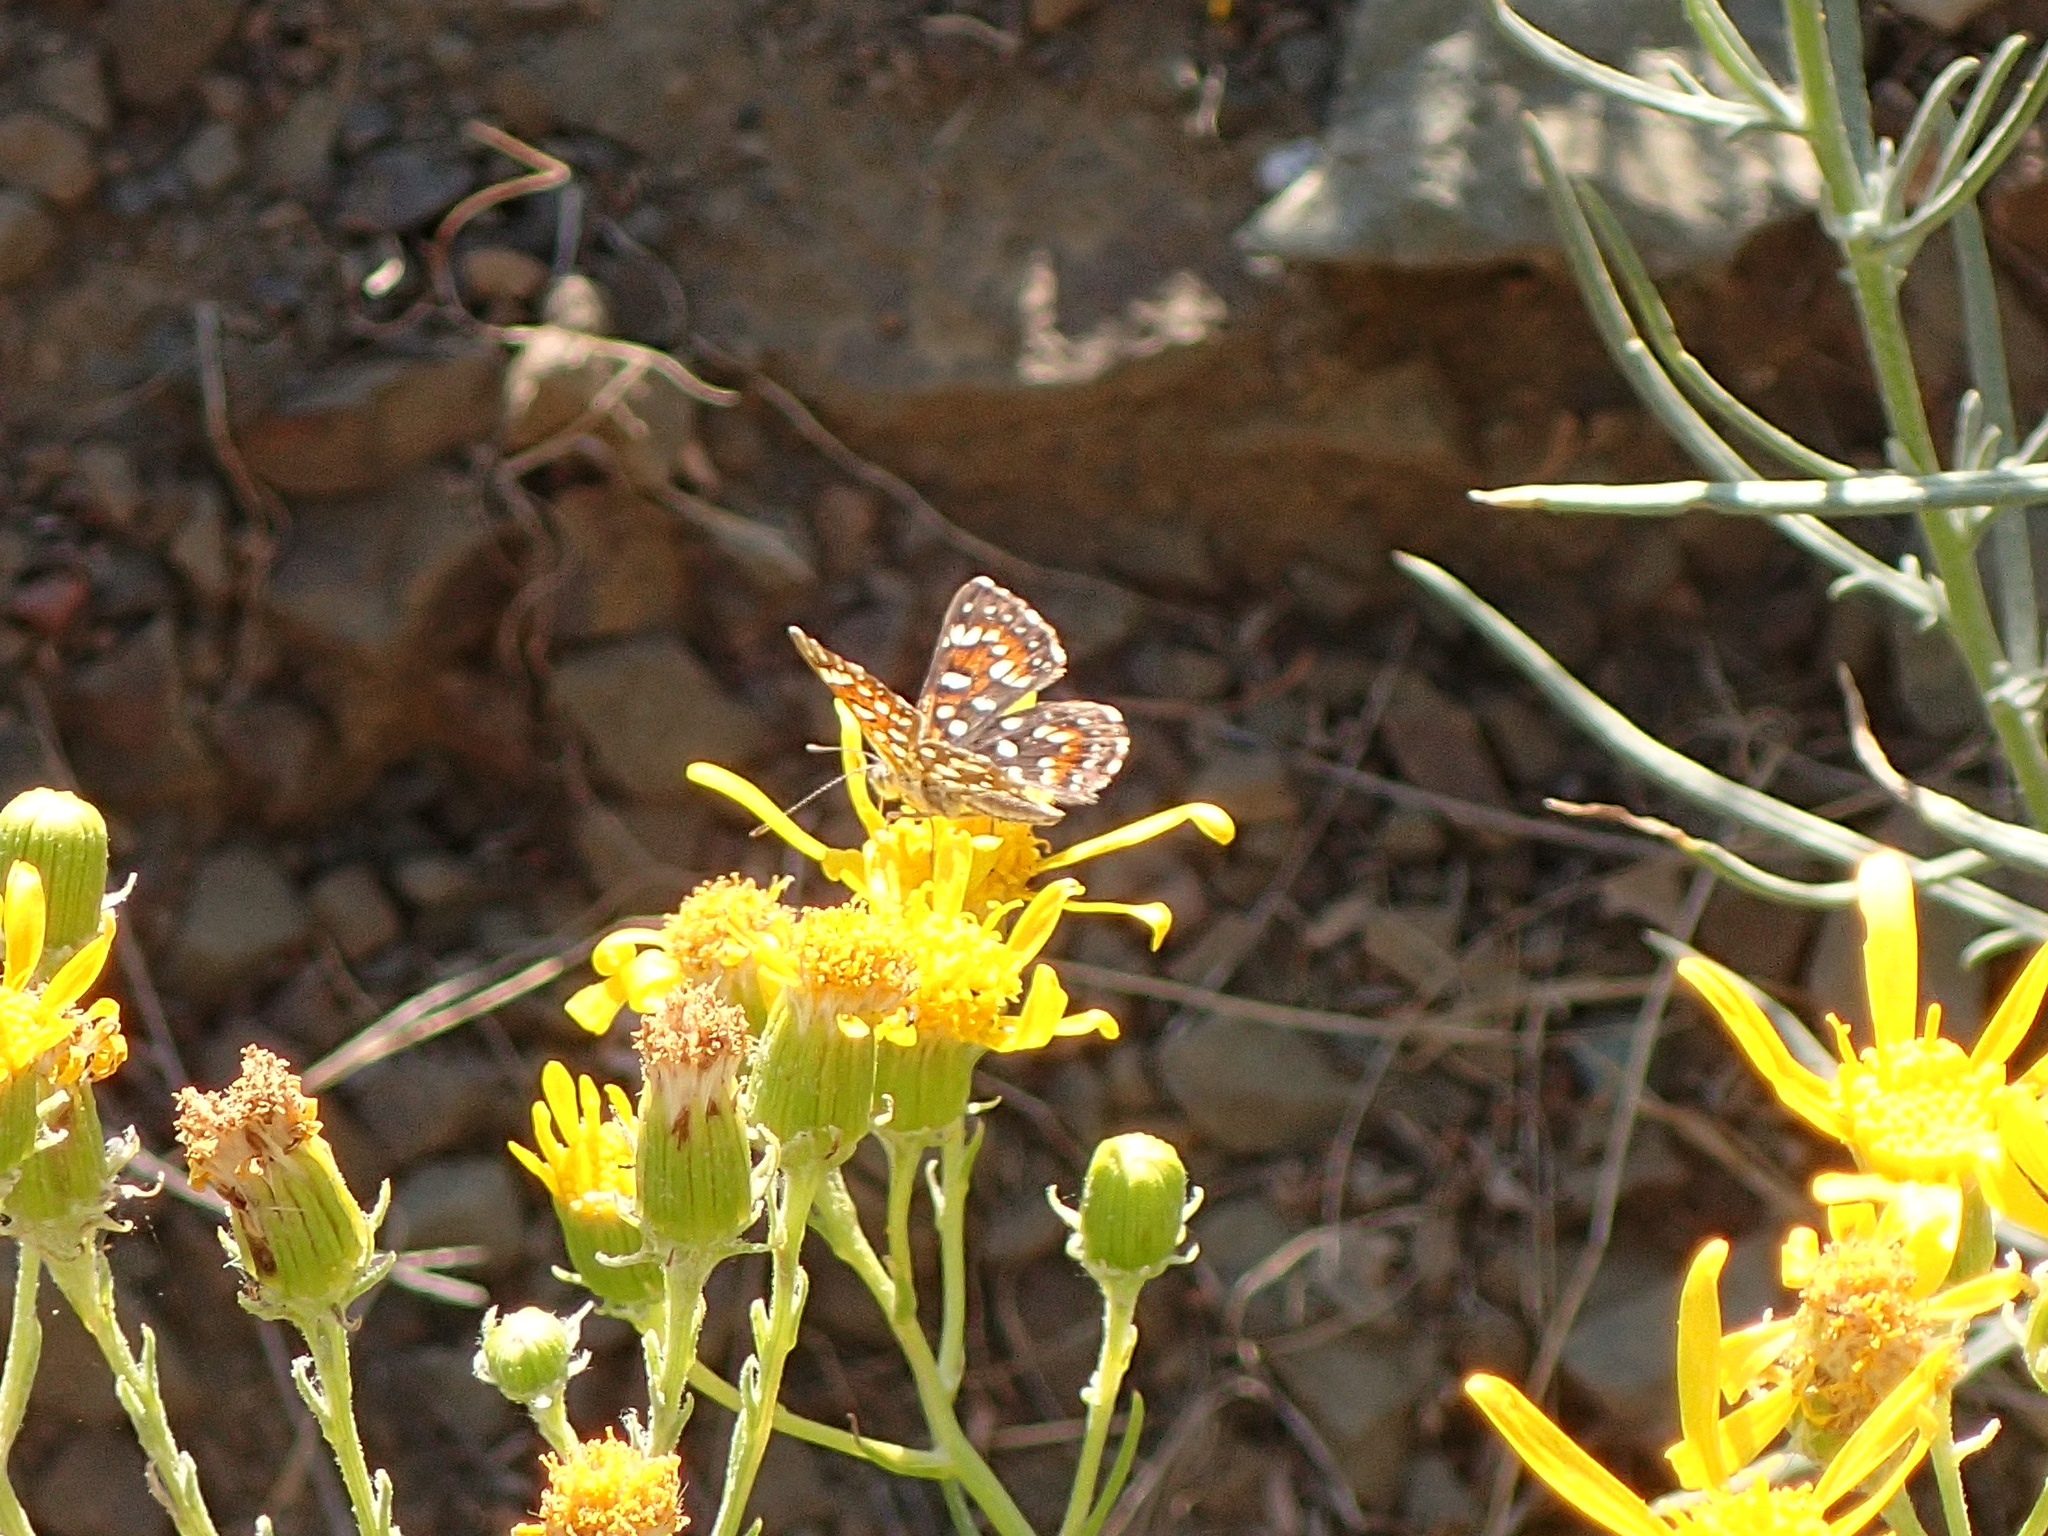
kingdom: Plantae
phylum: Tracheophyta
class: Magnoliopsida
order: Asterales
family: Asteraceae
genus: Senecio
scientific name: Senecio flaccidus
